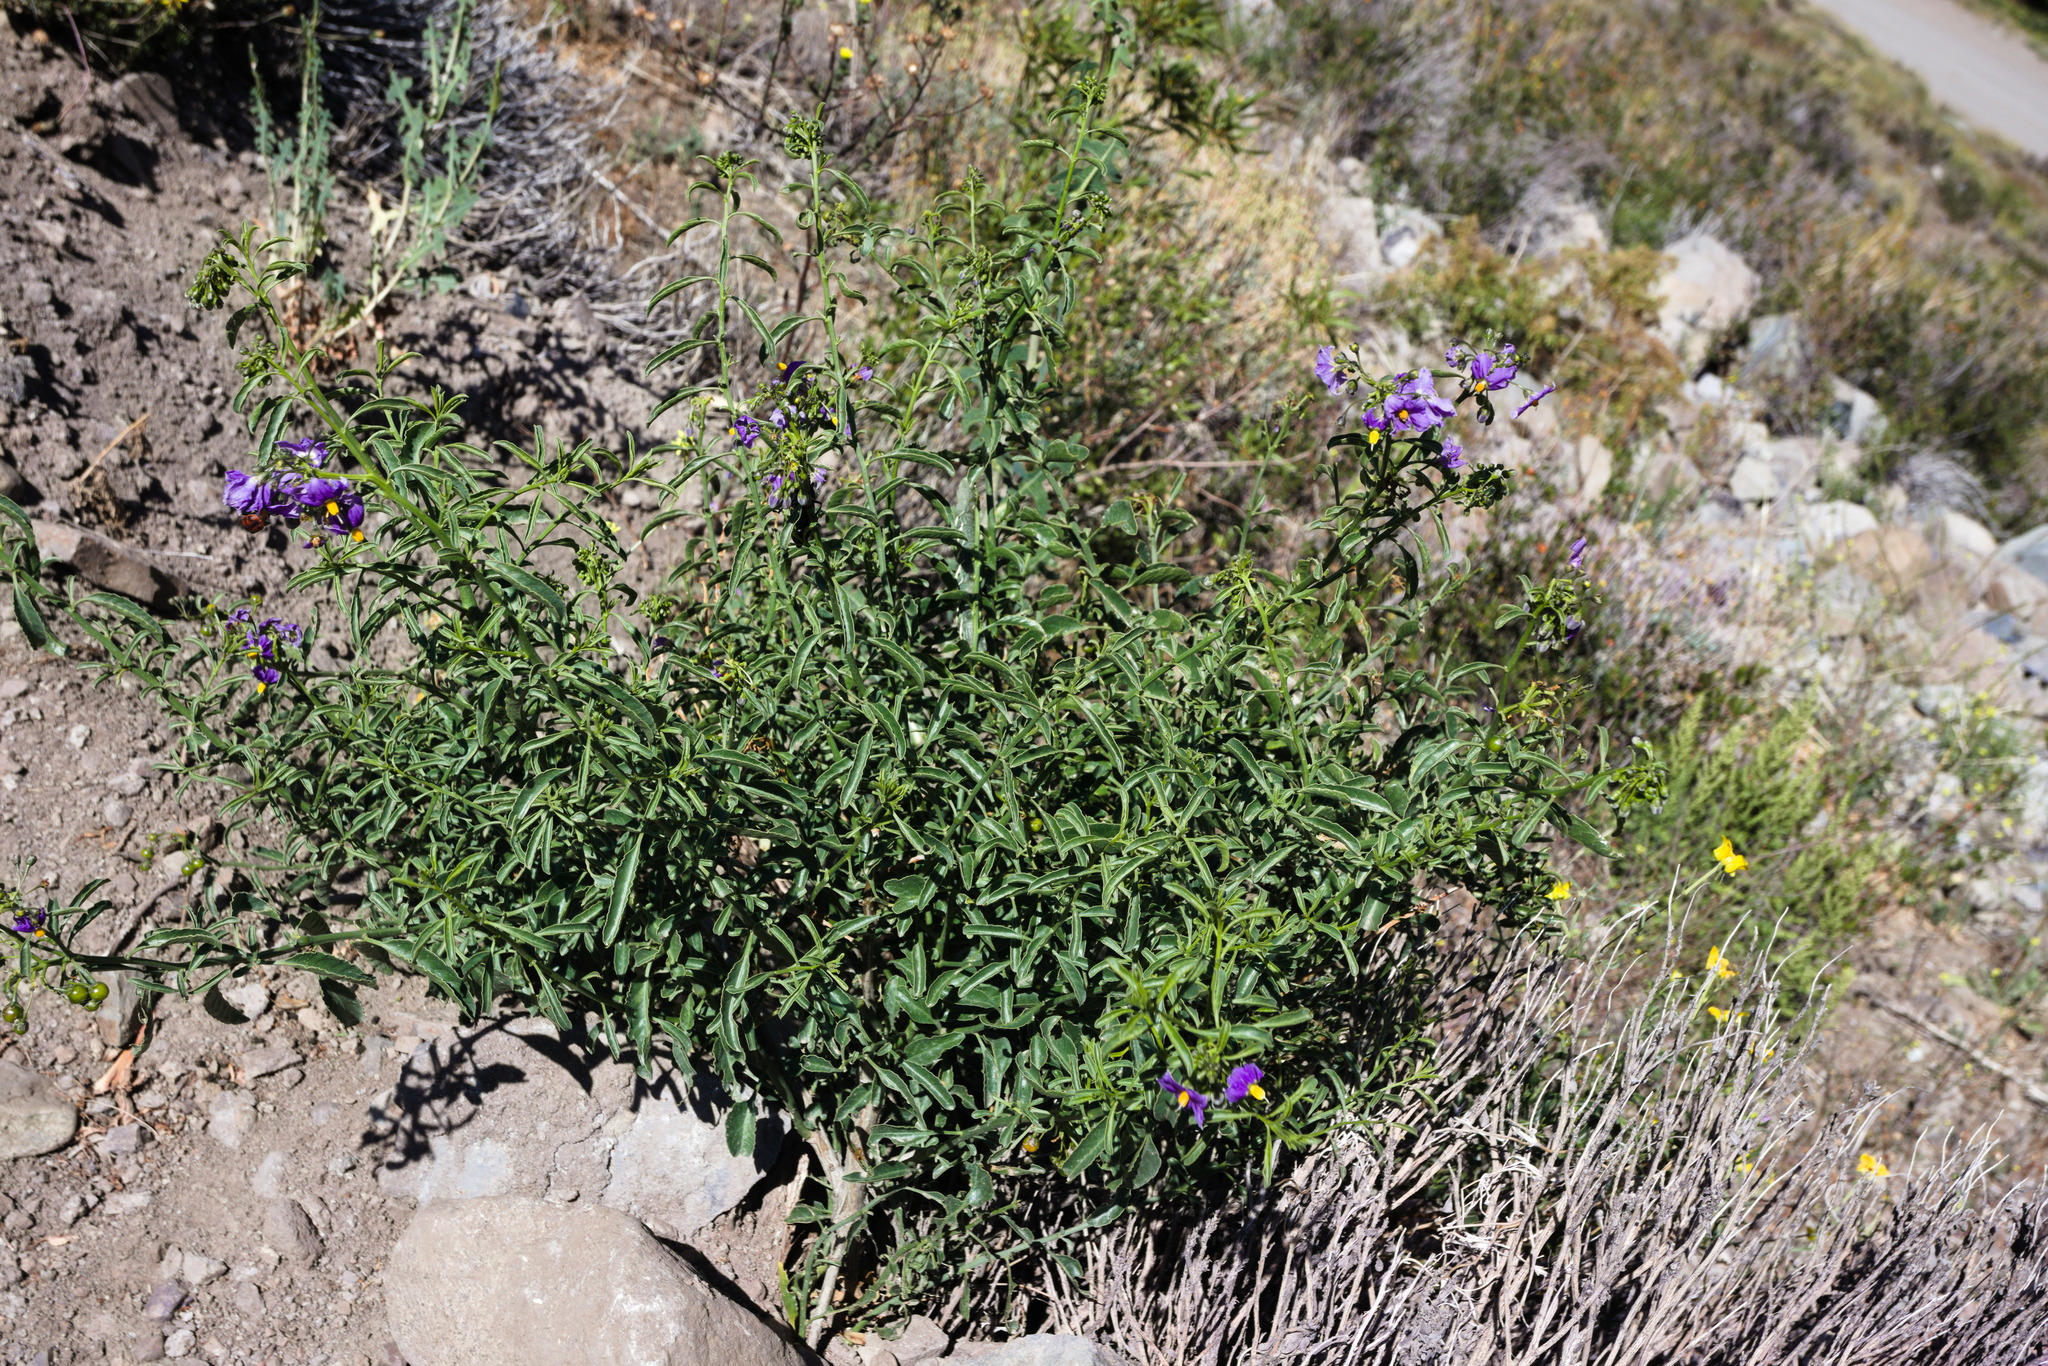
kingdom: Plantae
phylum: Tracheophyta
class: Magnoliopsida
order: Solanales
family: Solanaceae
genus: Solanum
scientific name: Solanum crispum
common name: Chilean nightshade
